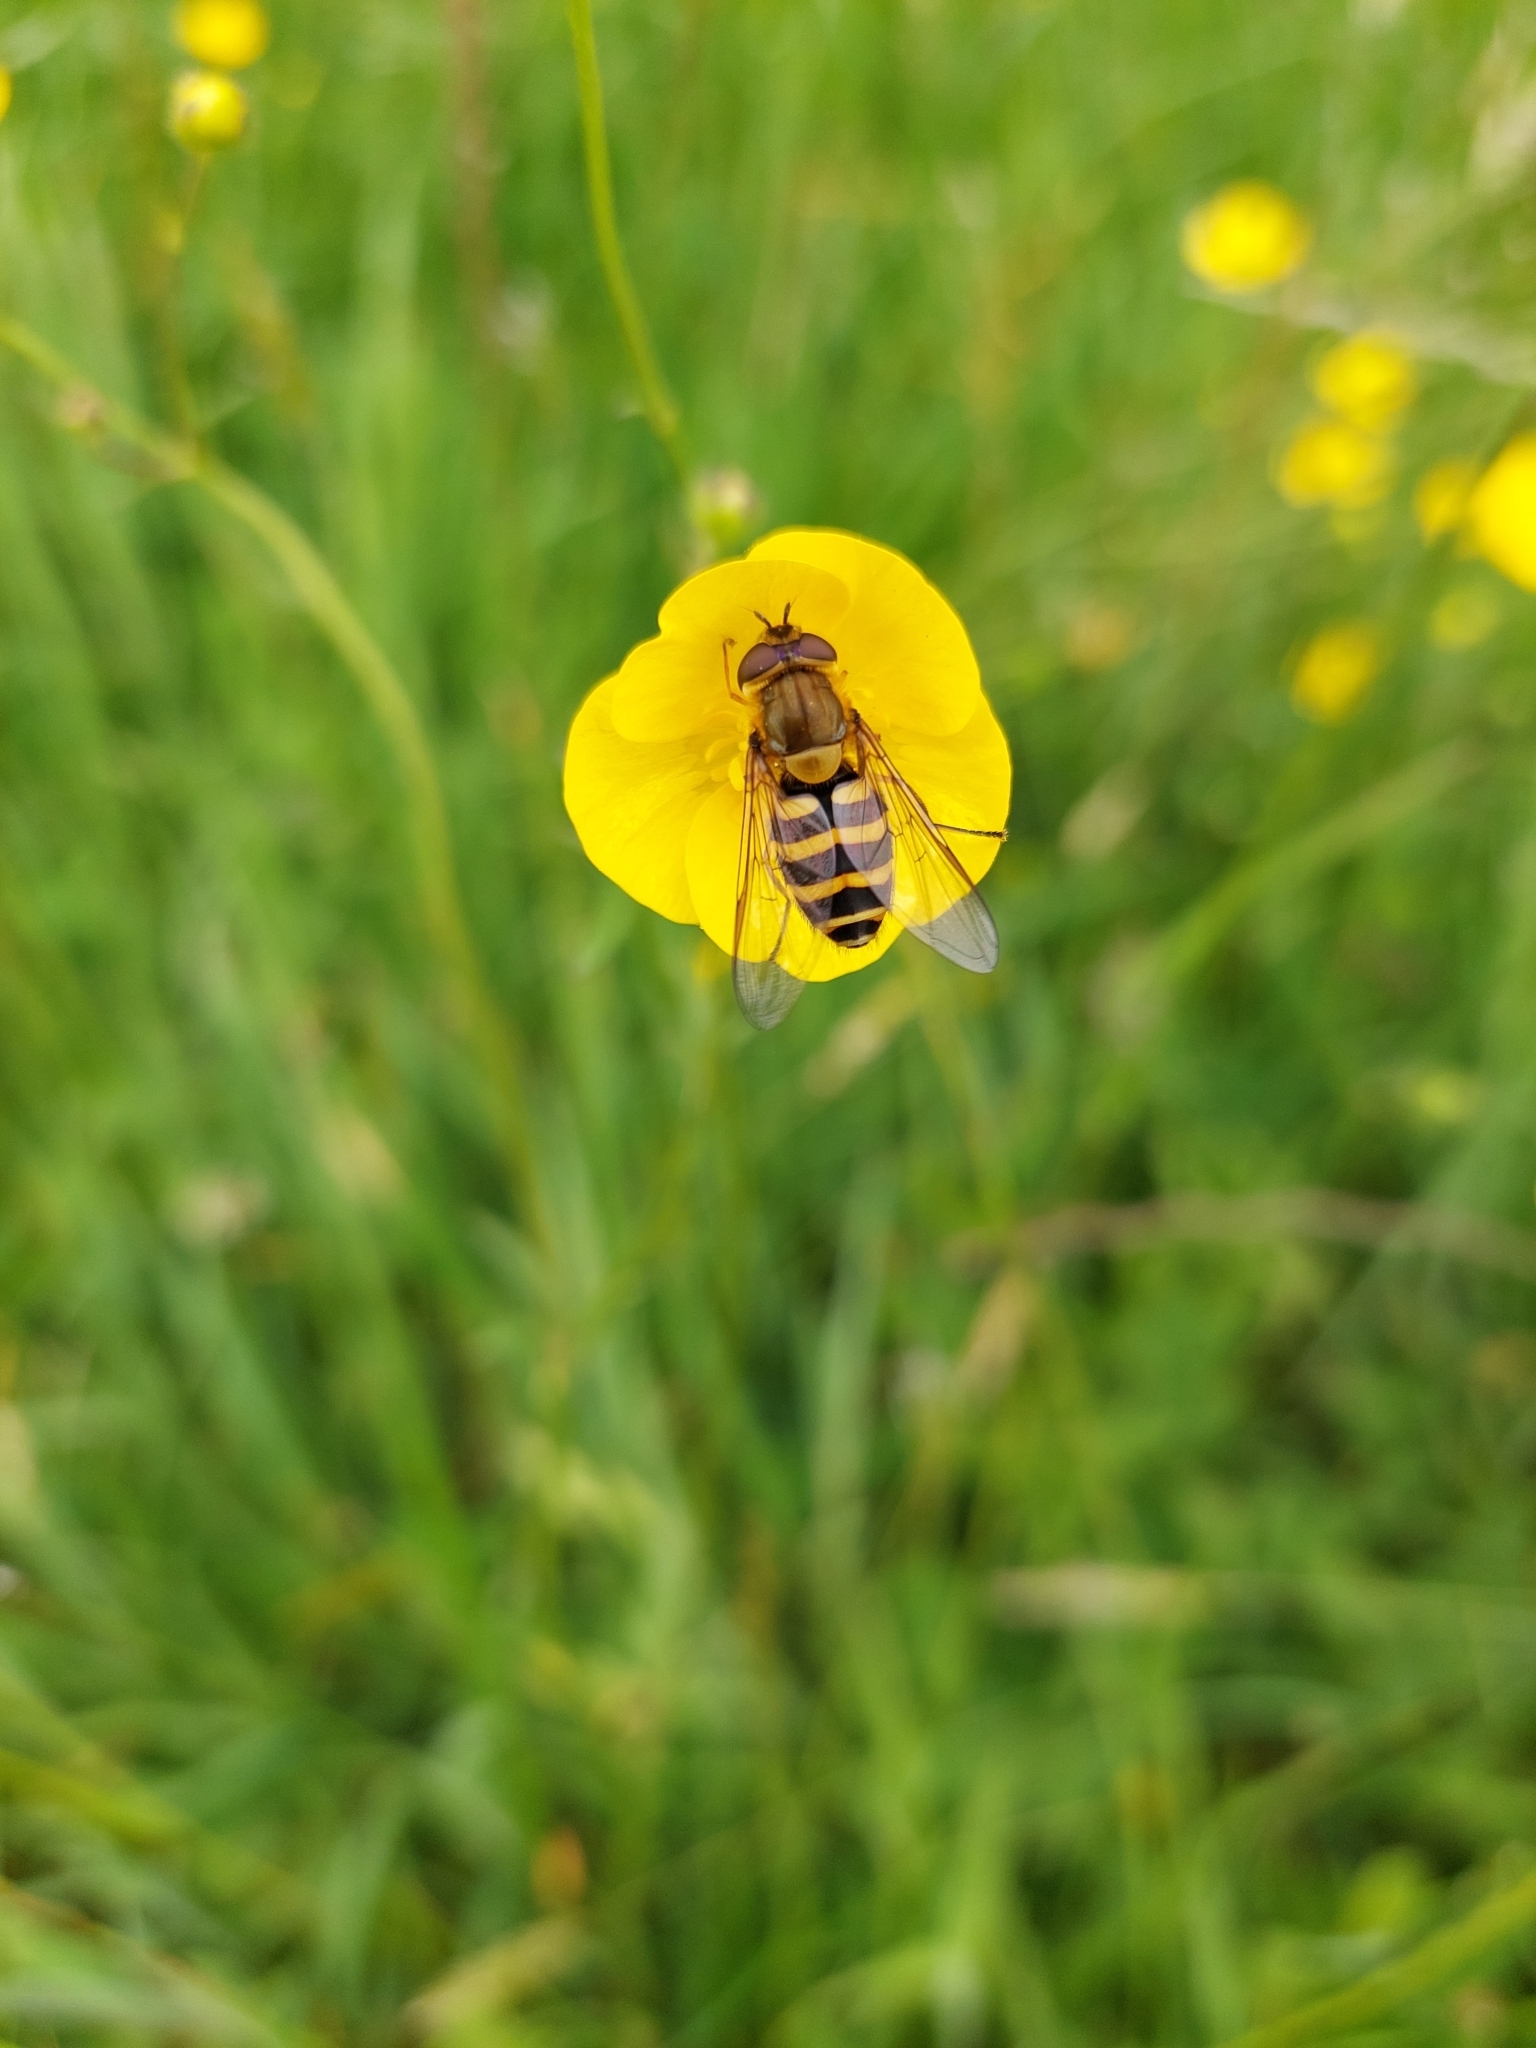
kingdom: Animalia
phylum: Arthropoda
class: Insecta
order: Diptera
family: Syrphidae
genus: Syrphus
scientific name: Syrphus ribesii
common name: Common flower fly
